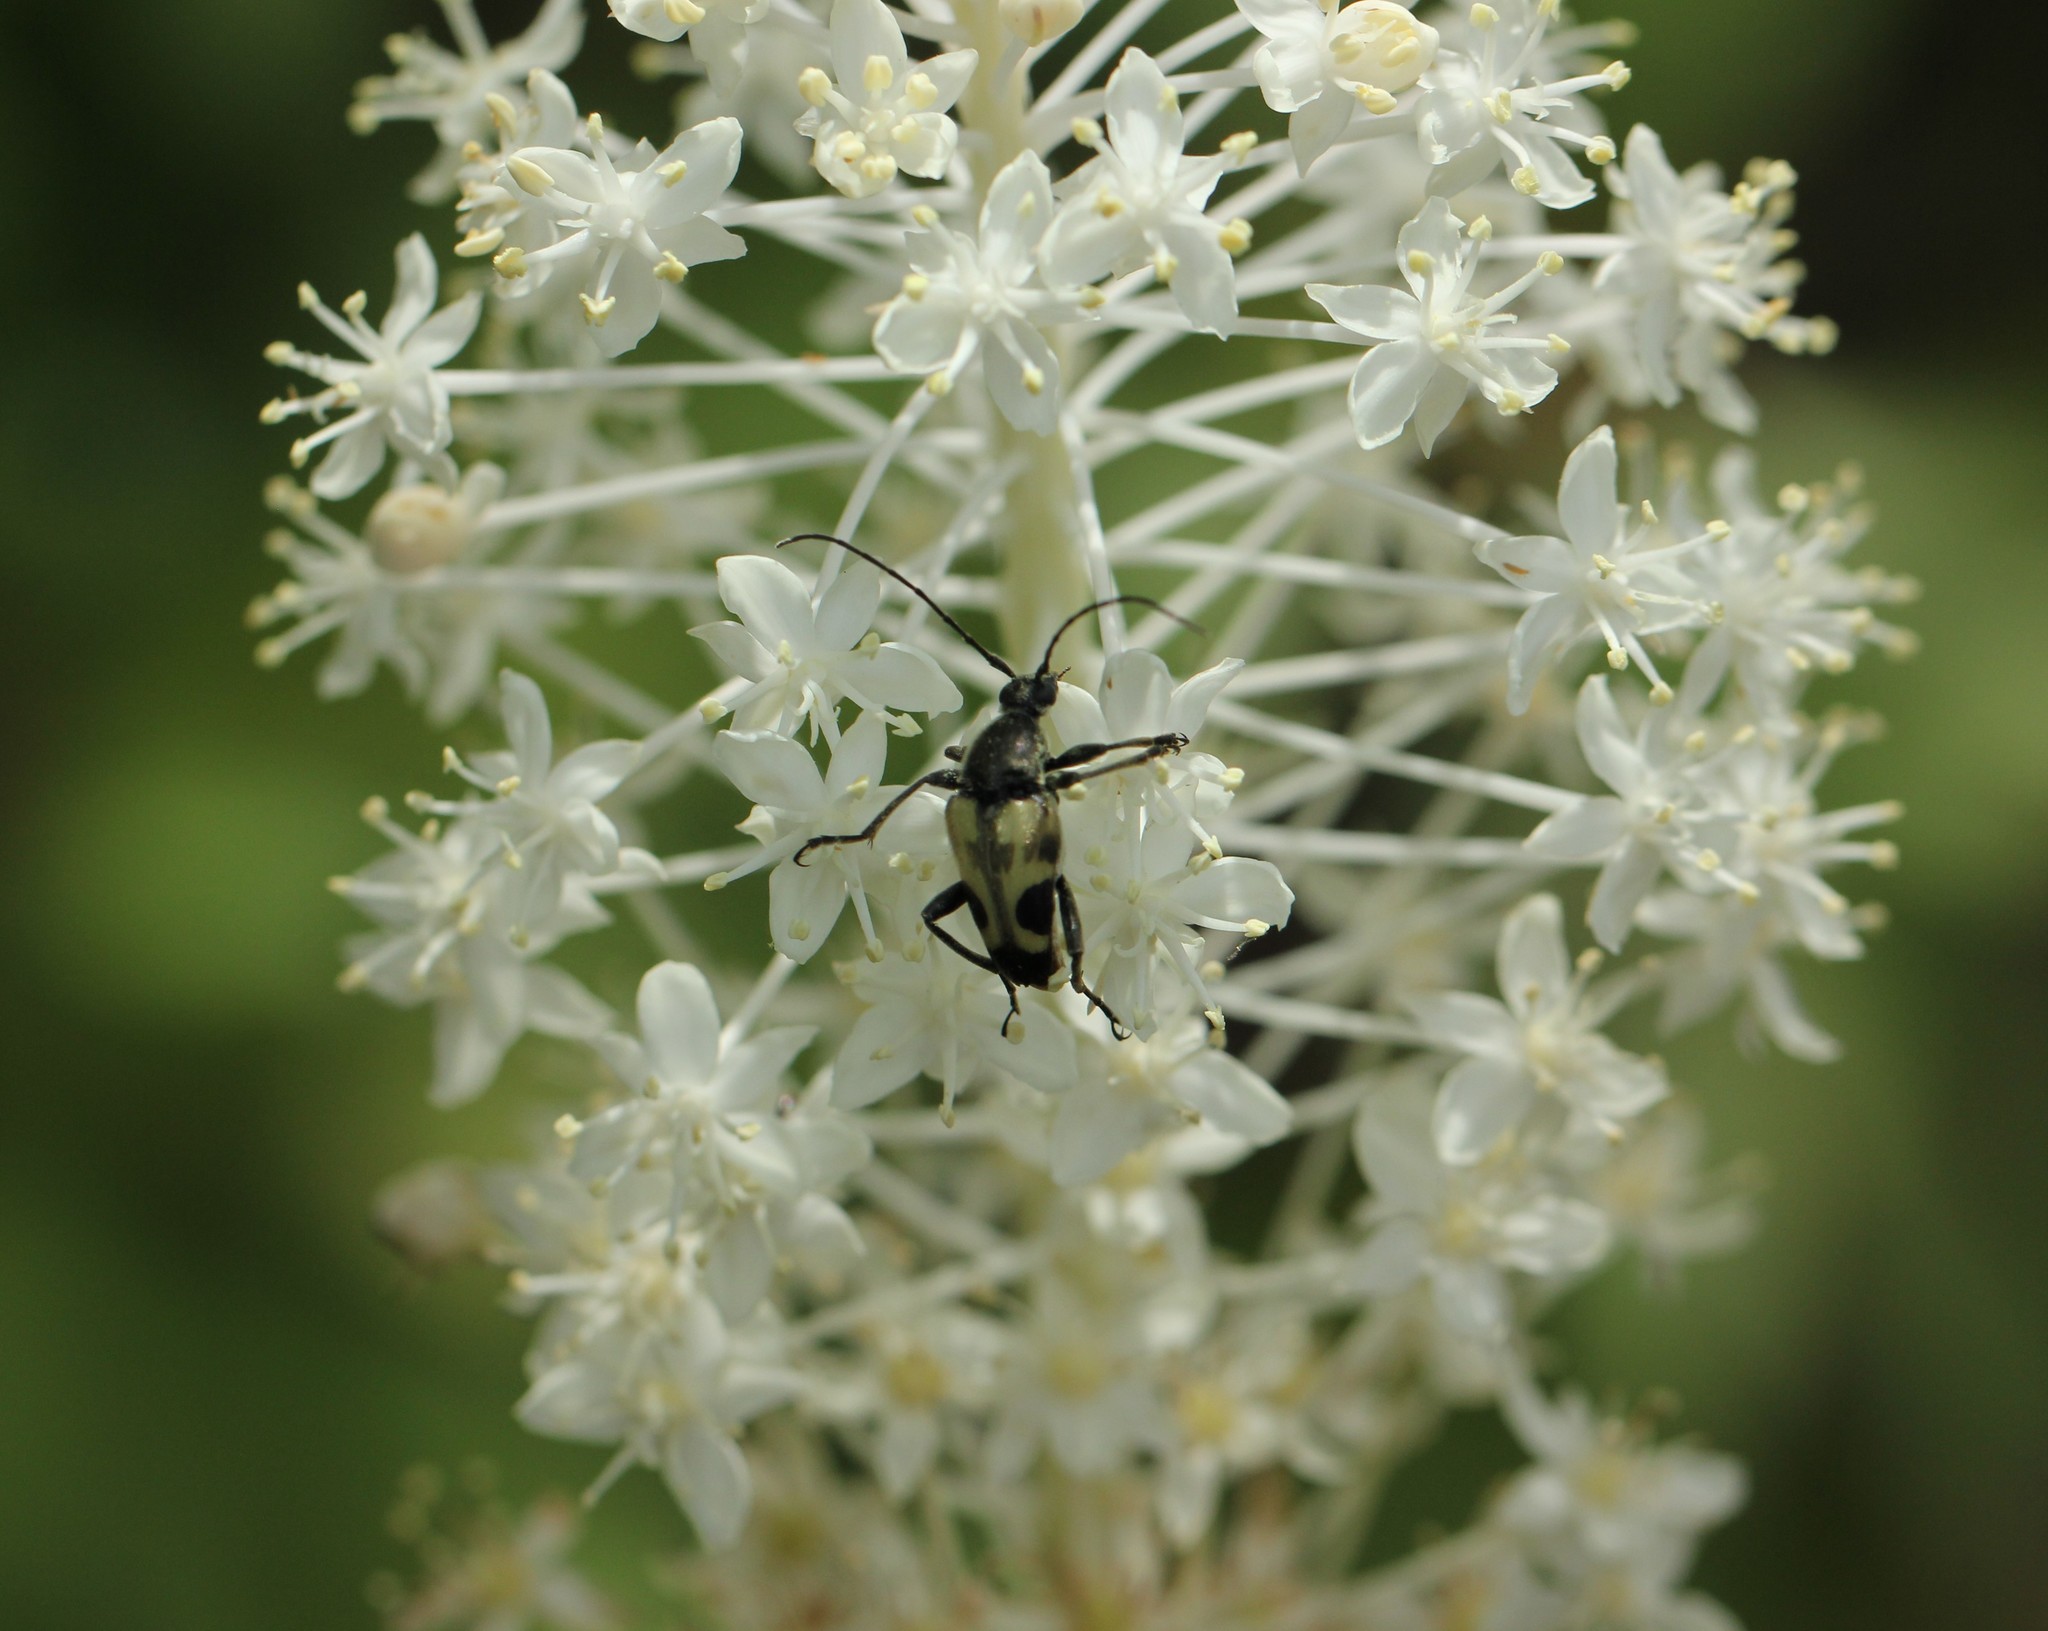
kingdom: Animalia
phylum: Arthropoda
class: Insecta
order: Coleoptera
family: Cerambycidae
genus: Judolia
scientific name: Judolia cordifera
